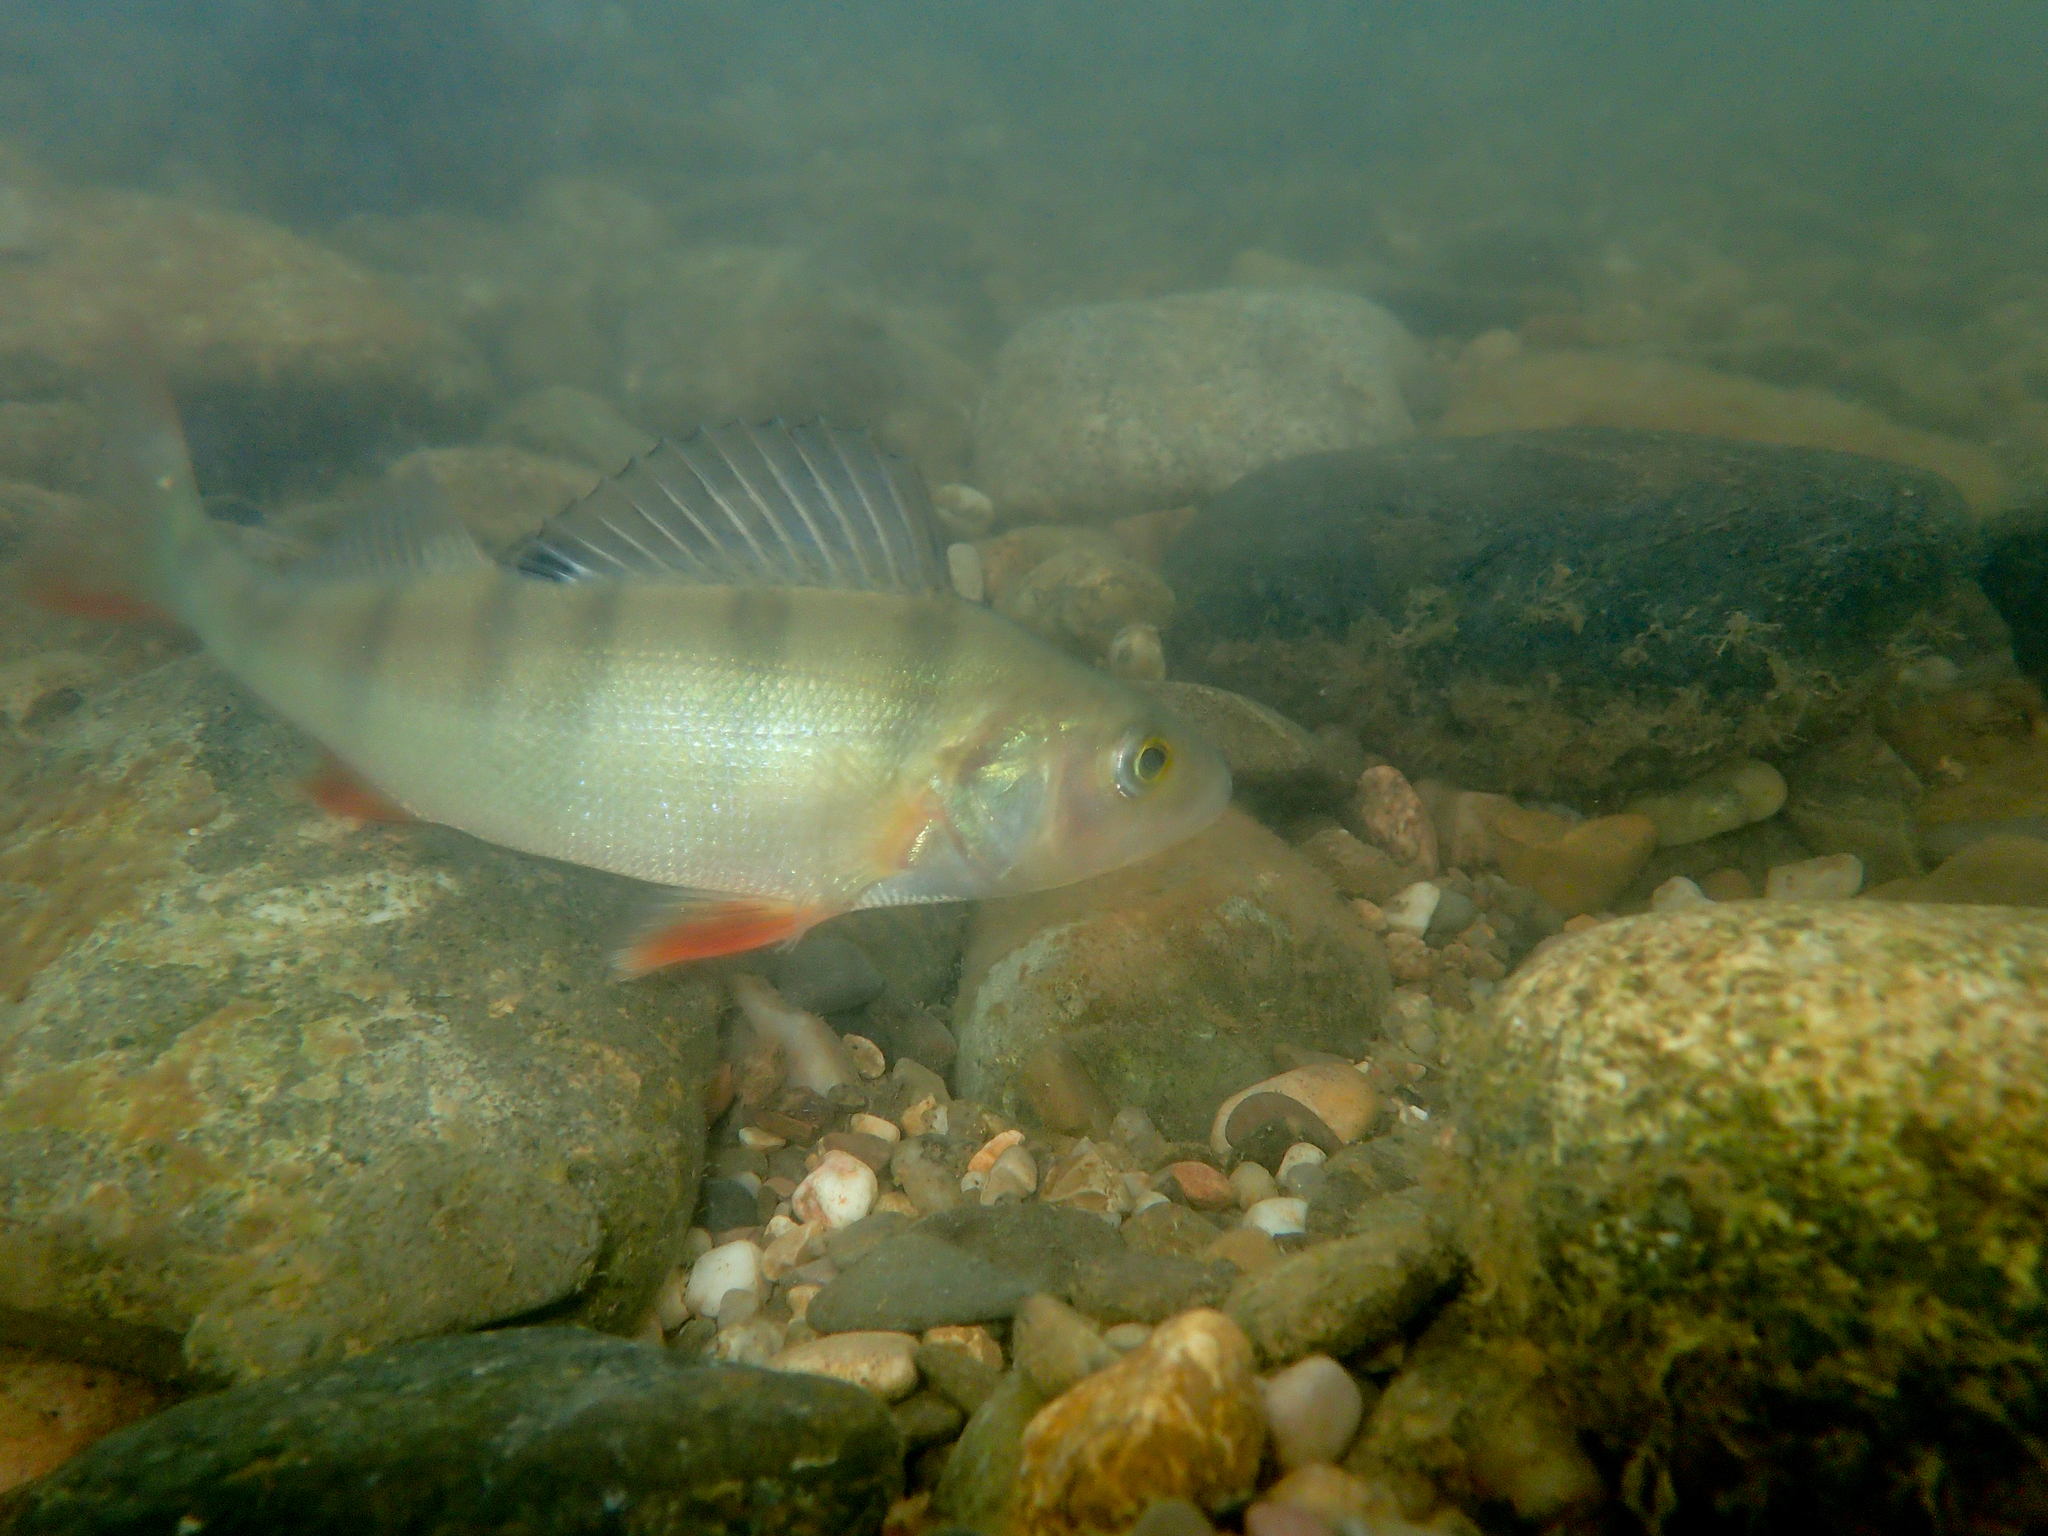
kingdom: Animalia
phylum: Chordata
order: Perciformes
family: Percidae
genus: Perca
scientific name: Perca fluviatilis
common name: Perch
